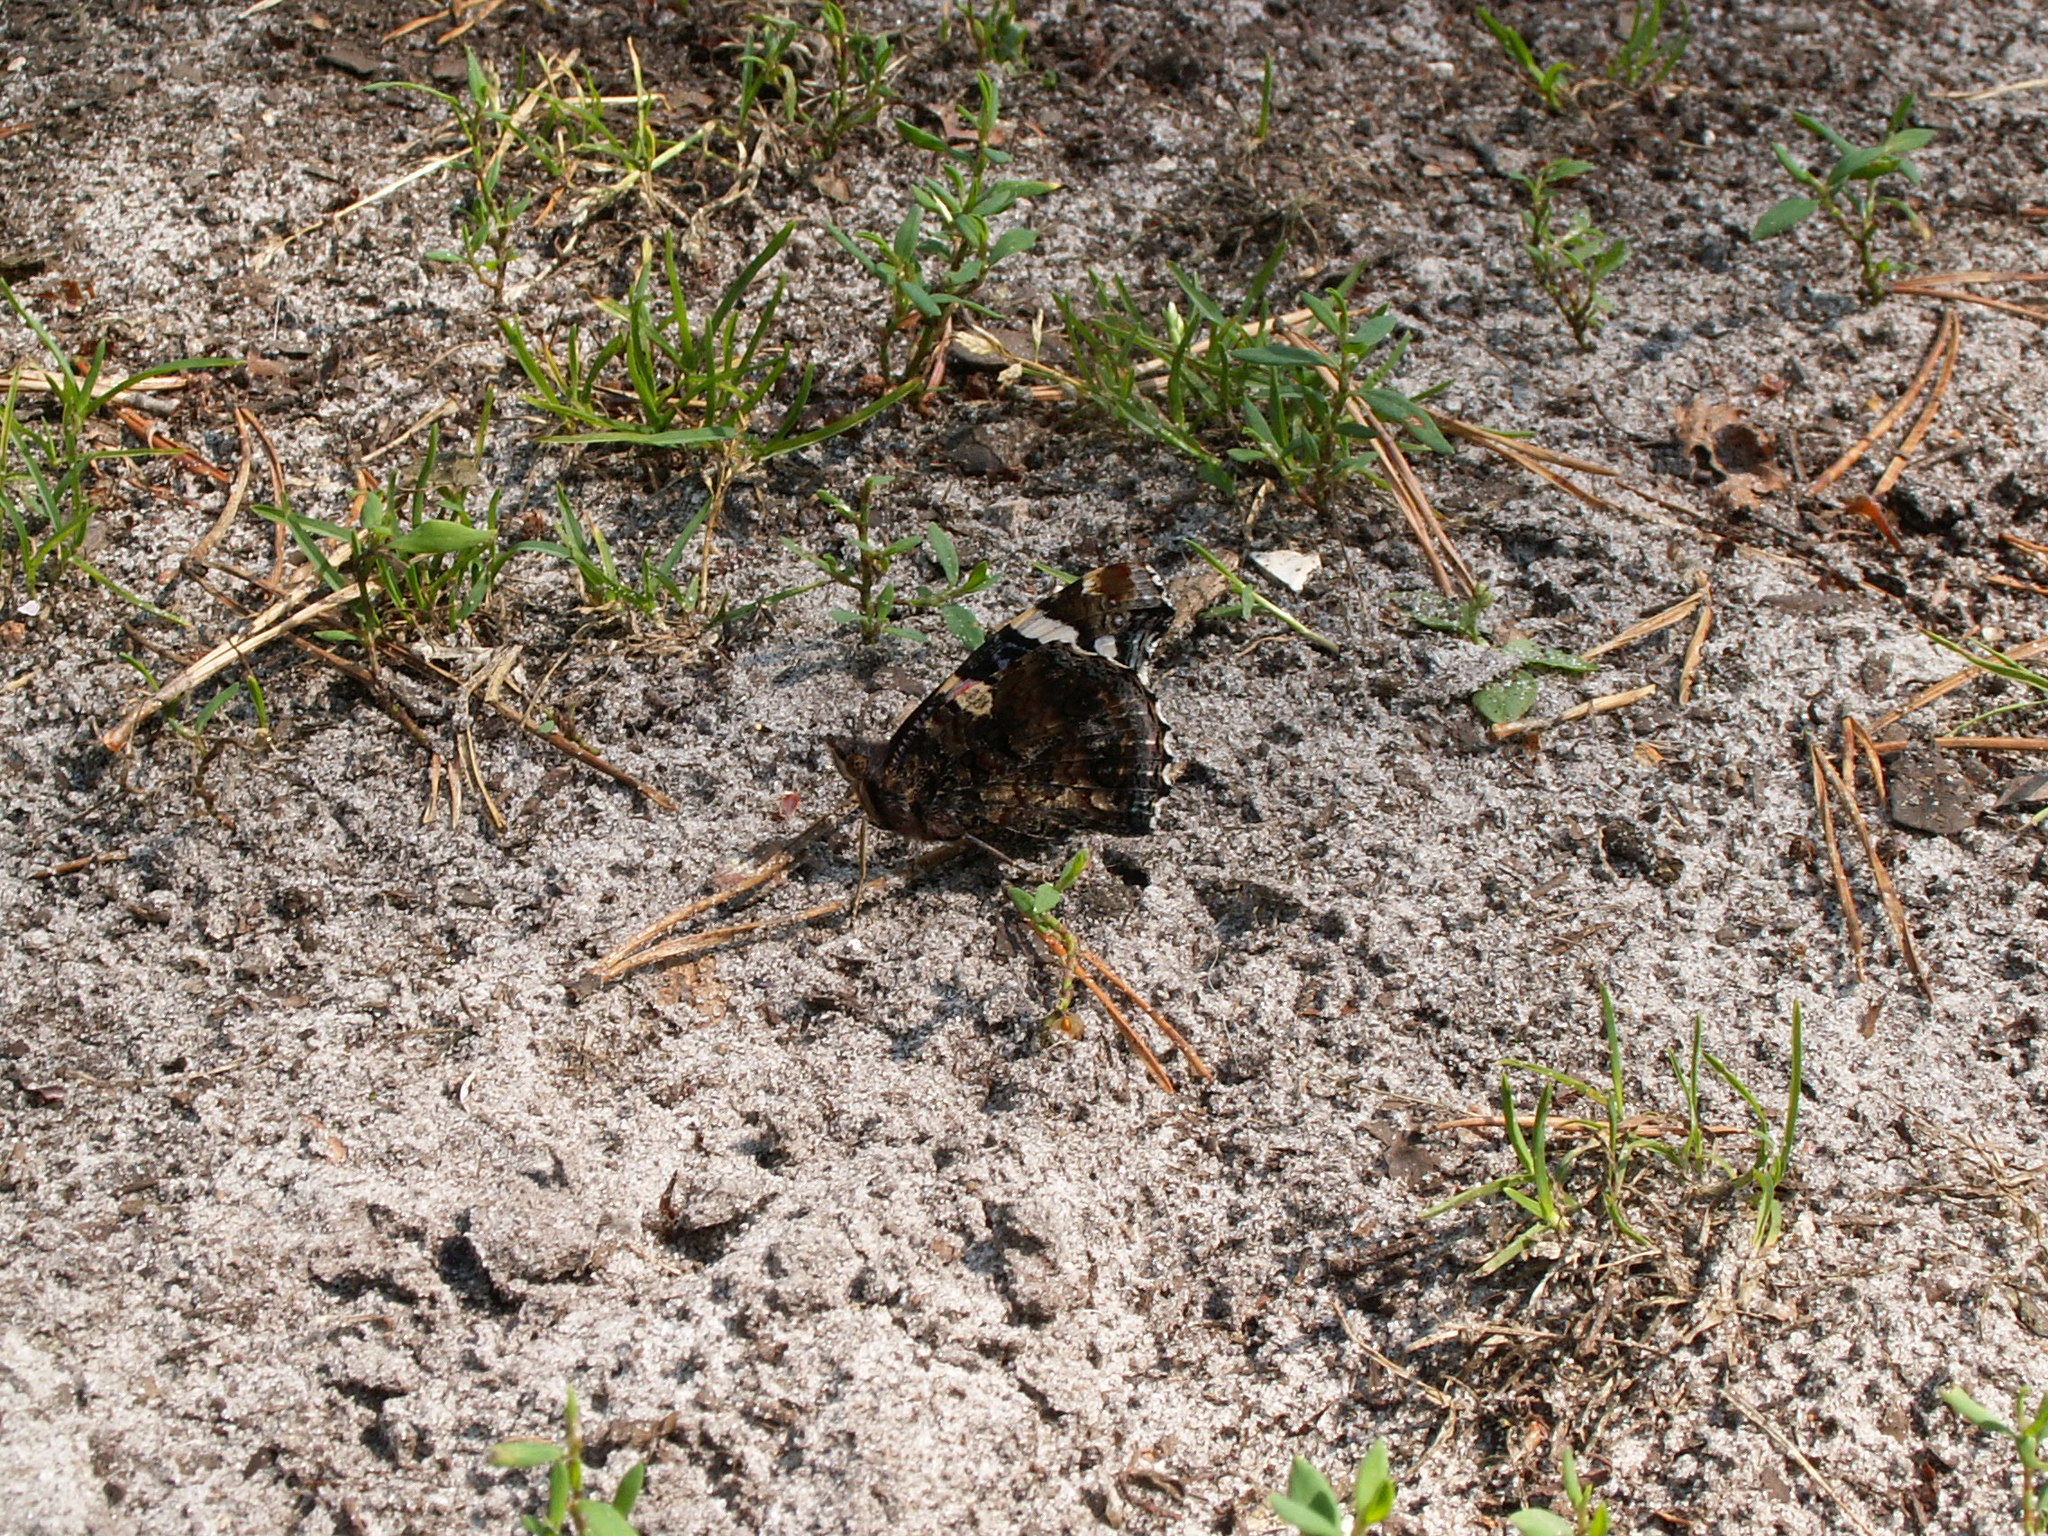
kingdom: Animalia
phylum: Arthropoda
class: Insecta
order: Lepidoptera
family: Nymphalidae
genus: Vanessa
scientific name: Vanessa atalanta
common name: Red admiral
